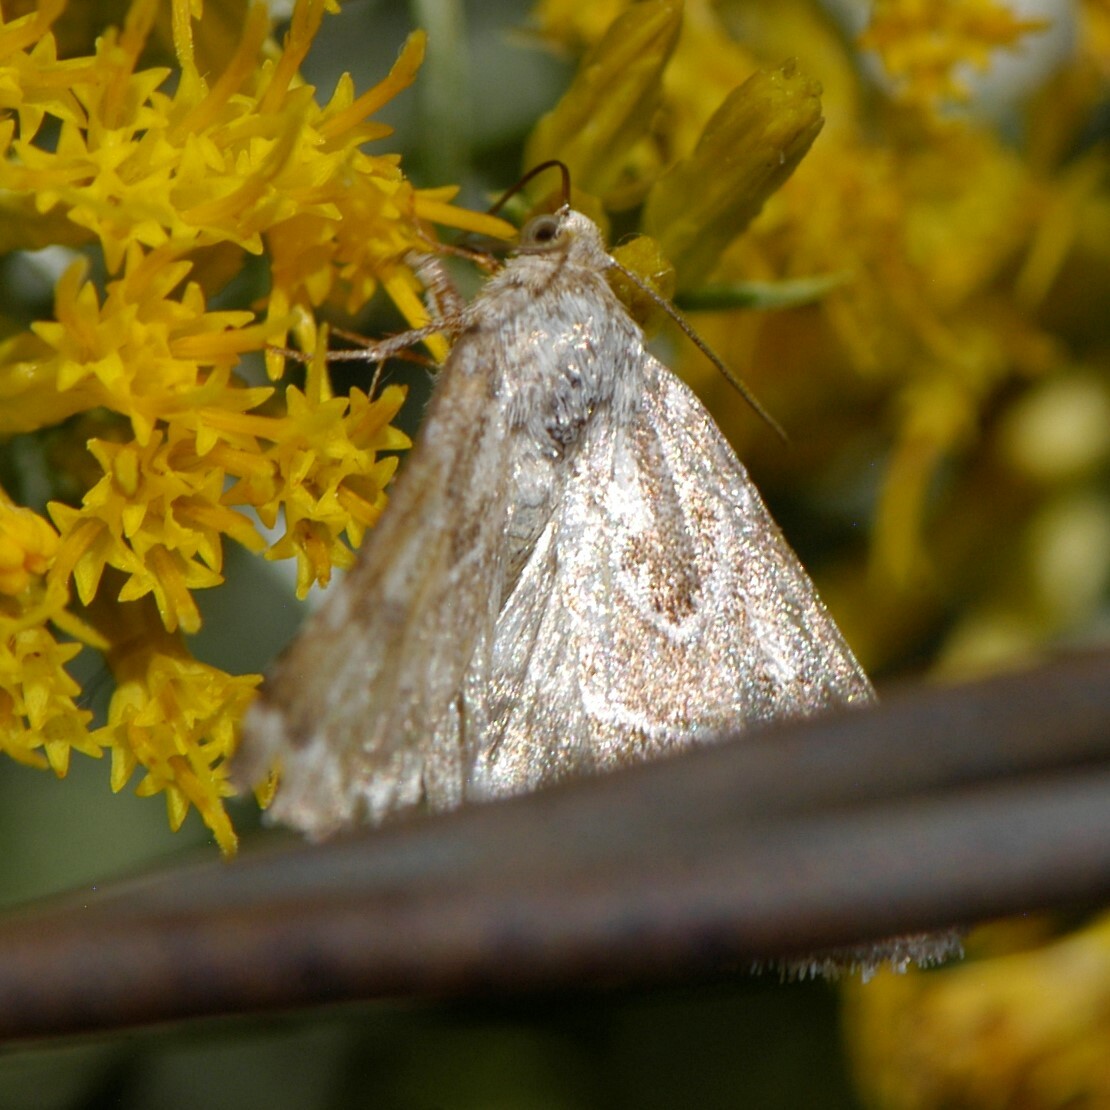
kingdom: Animalia
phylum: Arthropoda
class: Insecta
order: Lepidoptera
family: Noctuidae
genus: Schinia
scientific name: Schinia acutilinea
